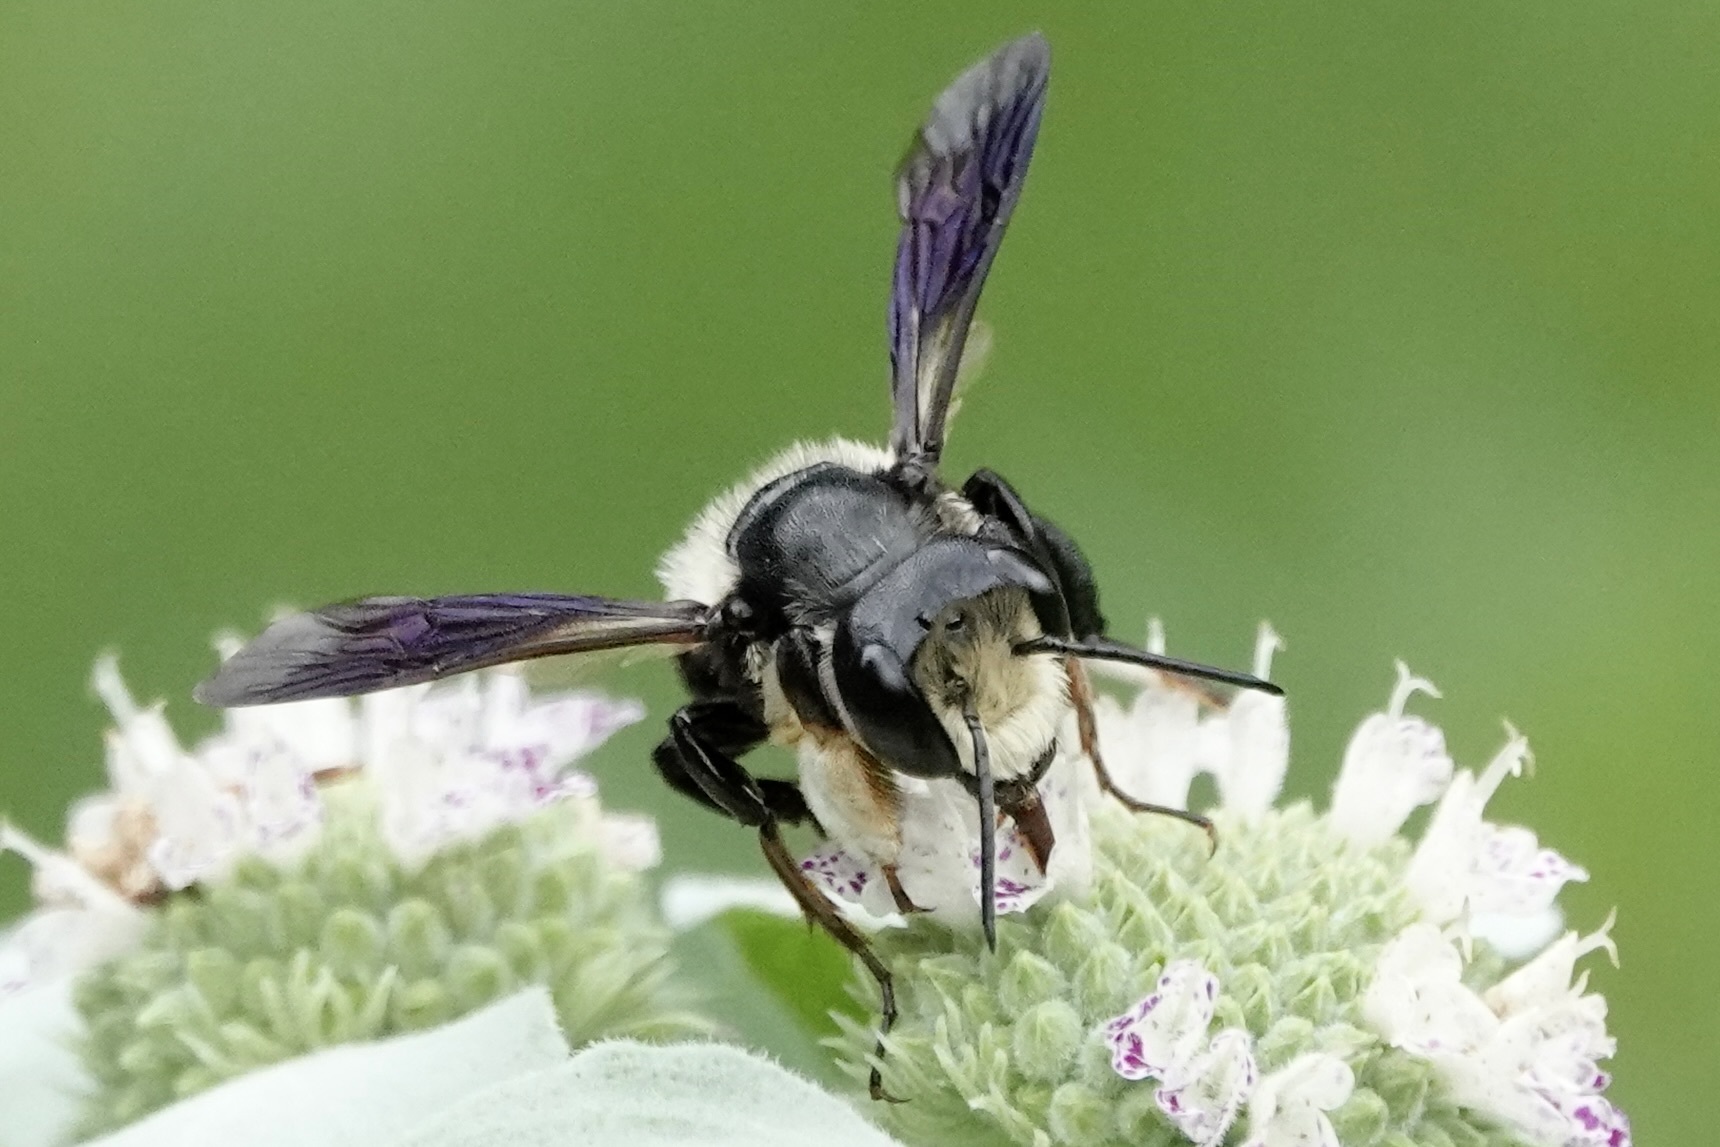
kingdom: Animalia
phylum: Arthropoda
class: Insecta
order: Hymenoptera
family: Megachilidae
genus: Megachile
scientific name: Megachile xylocopoides
